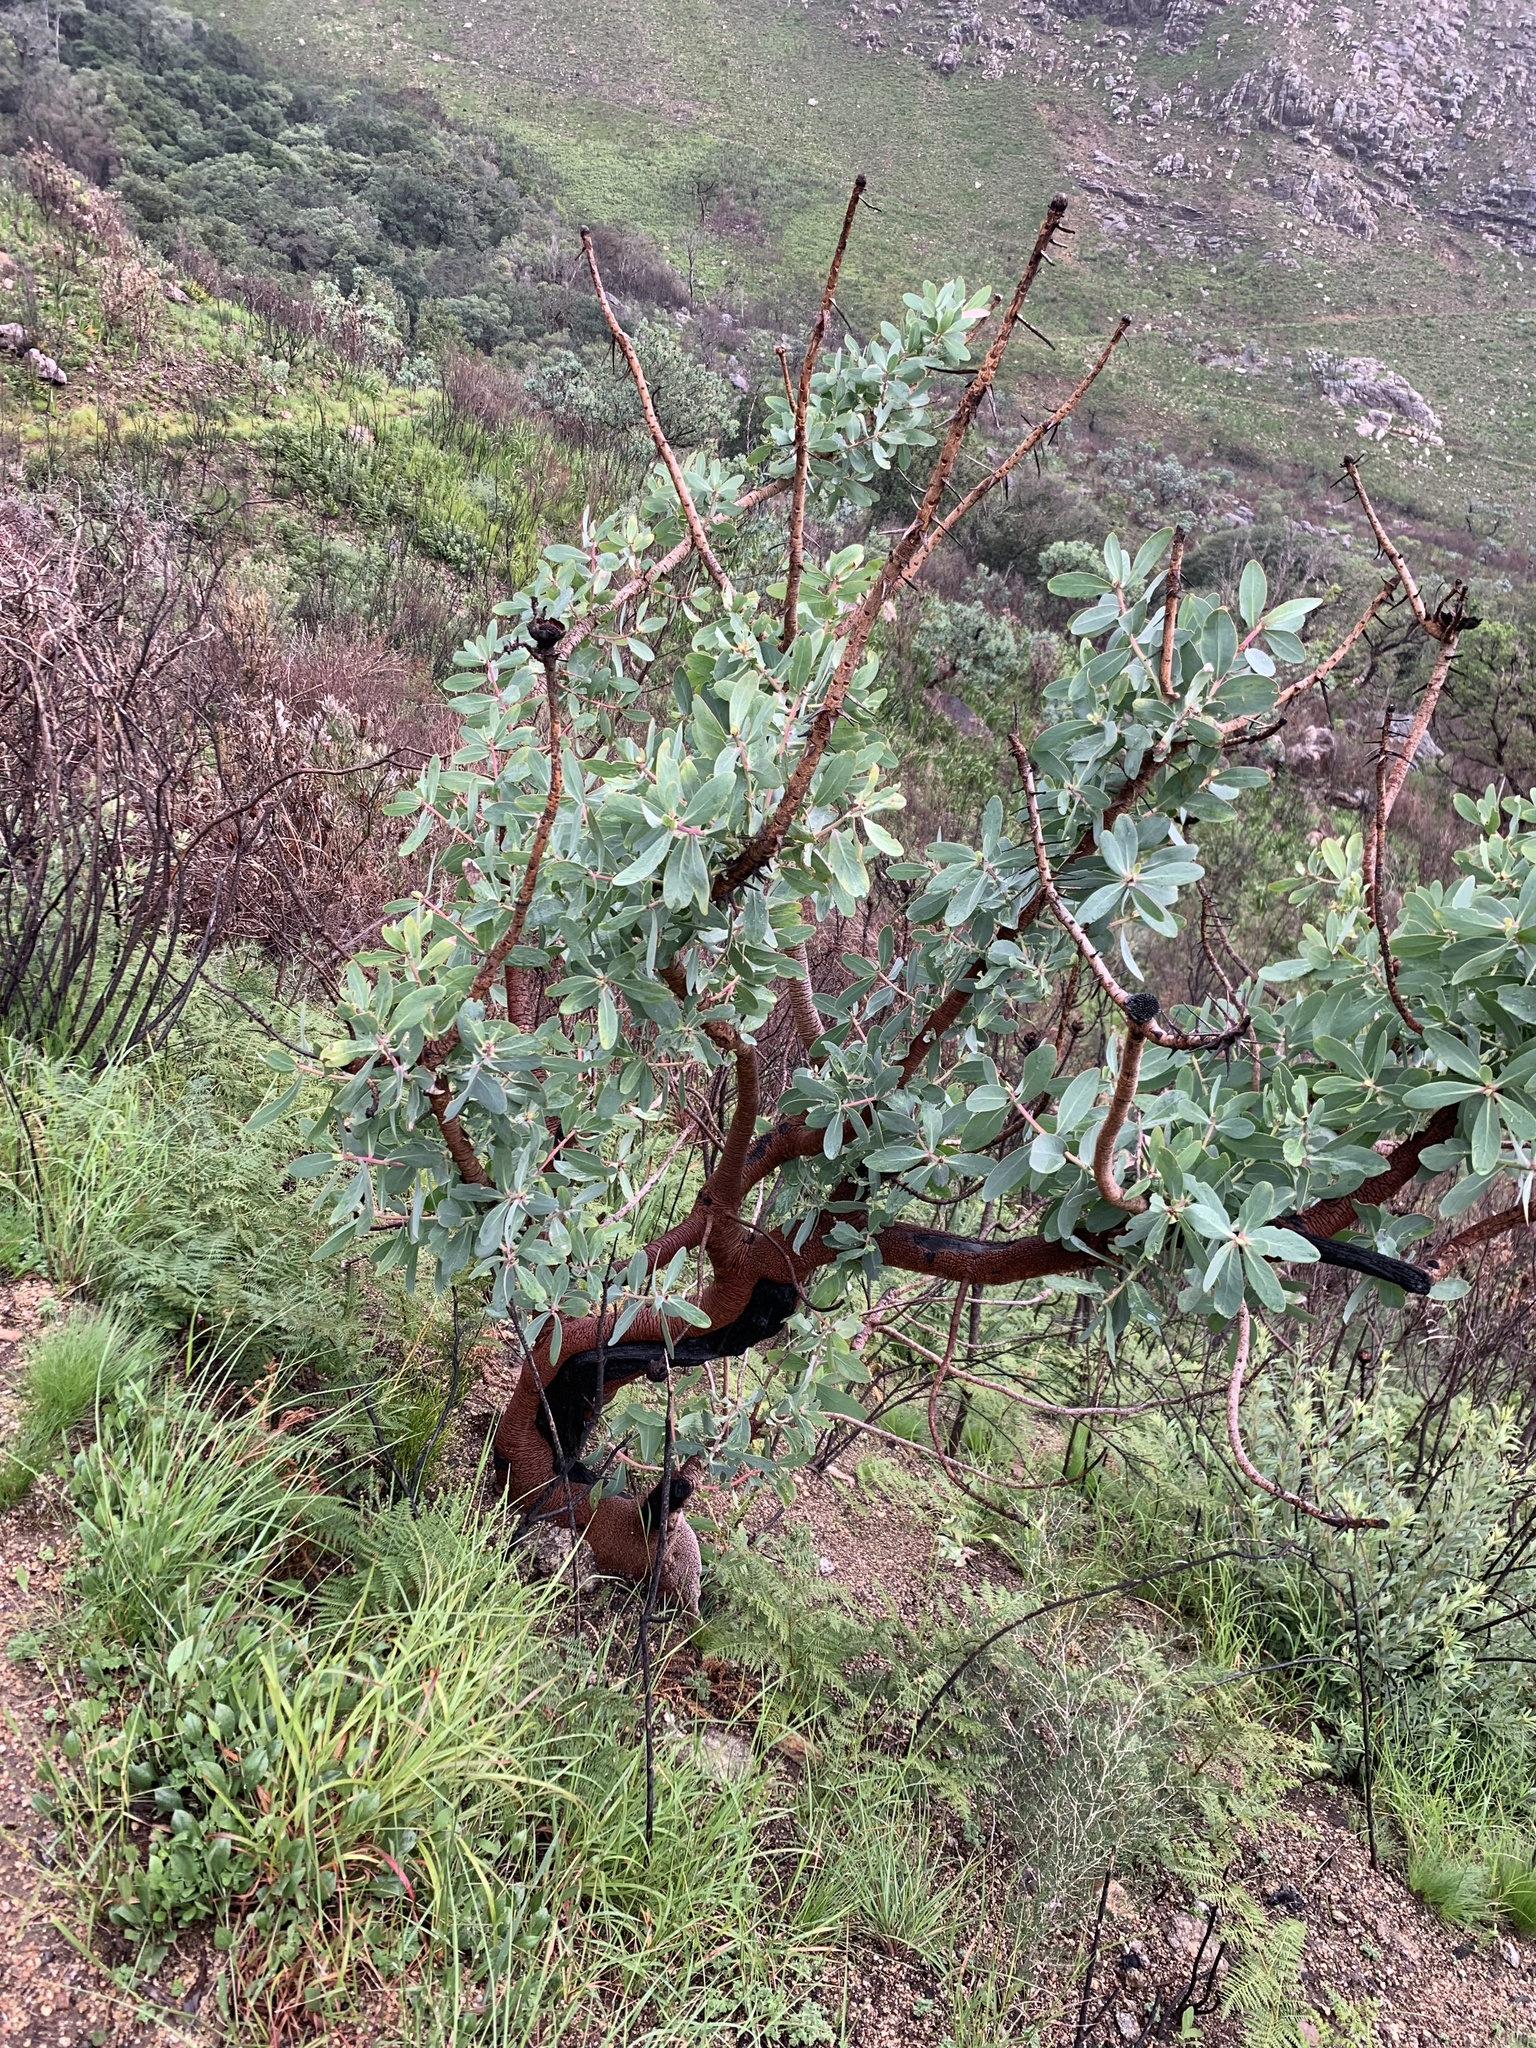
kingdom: Plantae
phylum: Tracheophyta
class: Magnoliopsida
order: Proteales
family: Proteaceae
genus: Protea
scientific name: Protea nitida
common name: Tree protea
